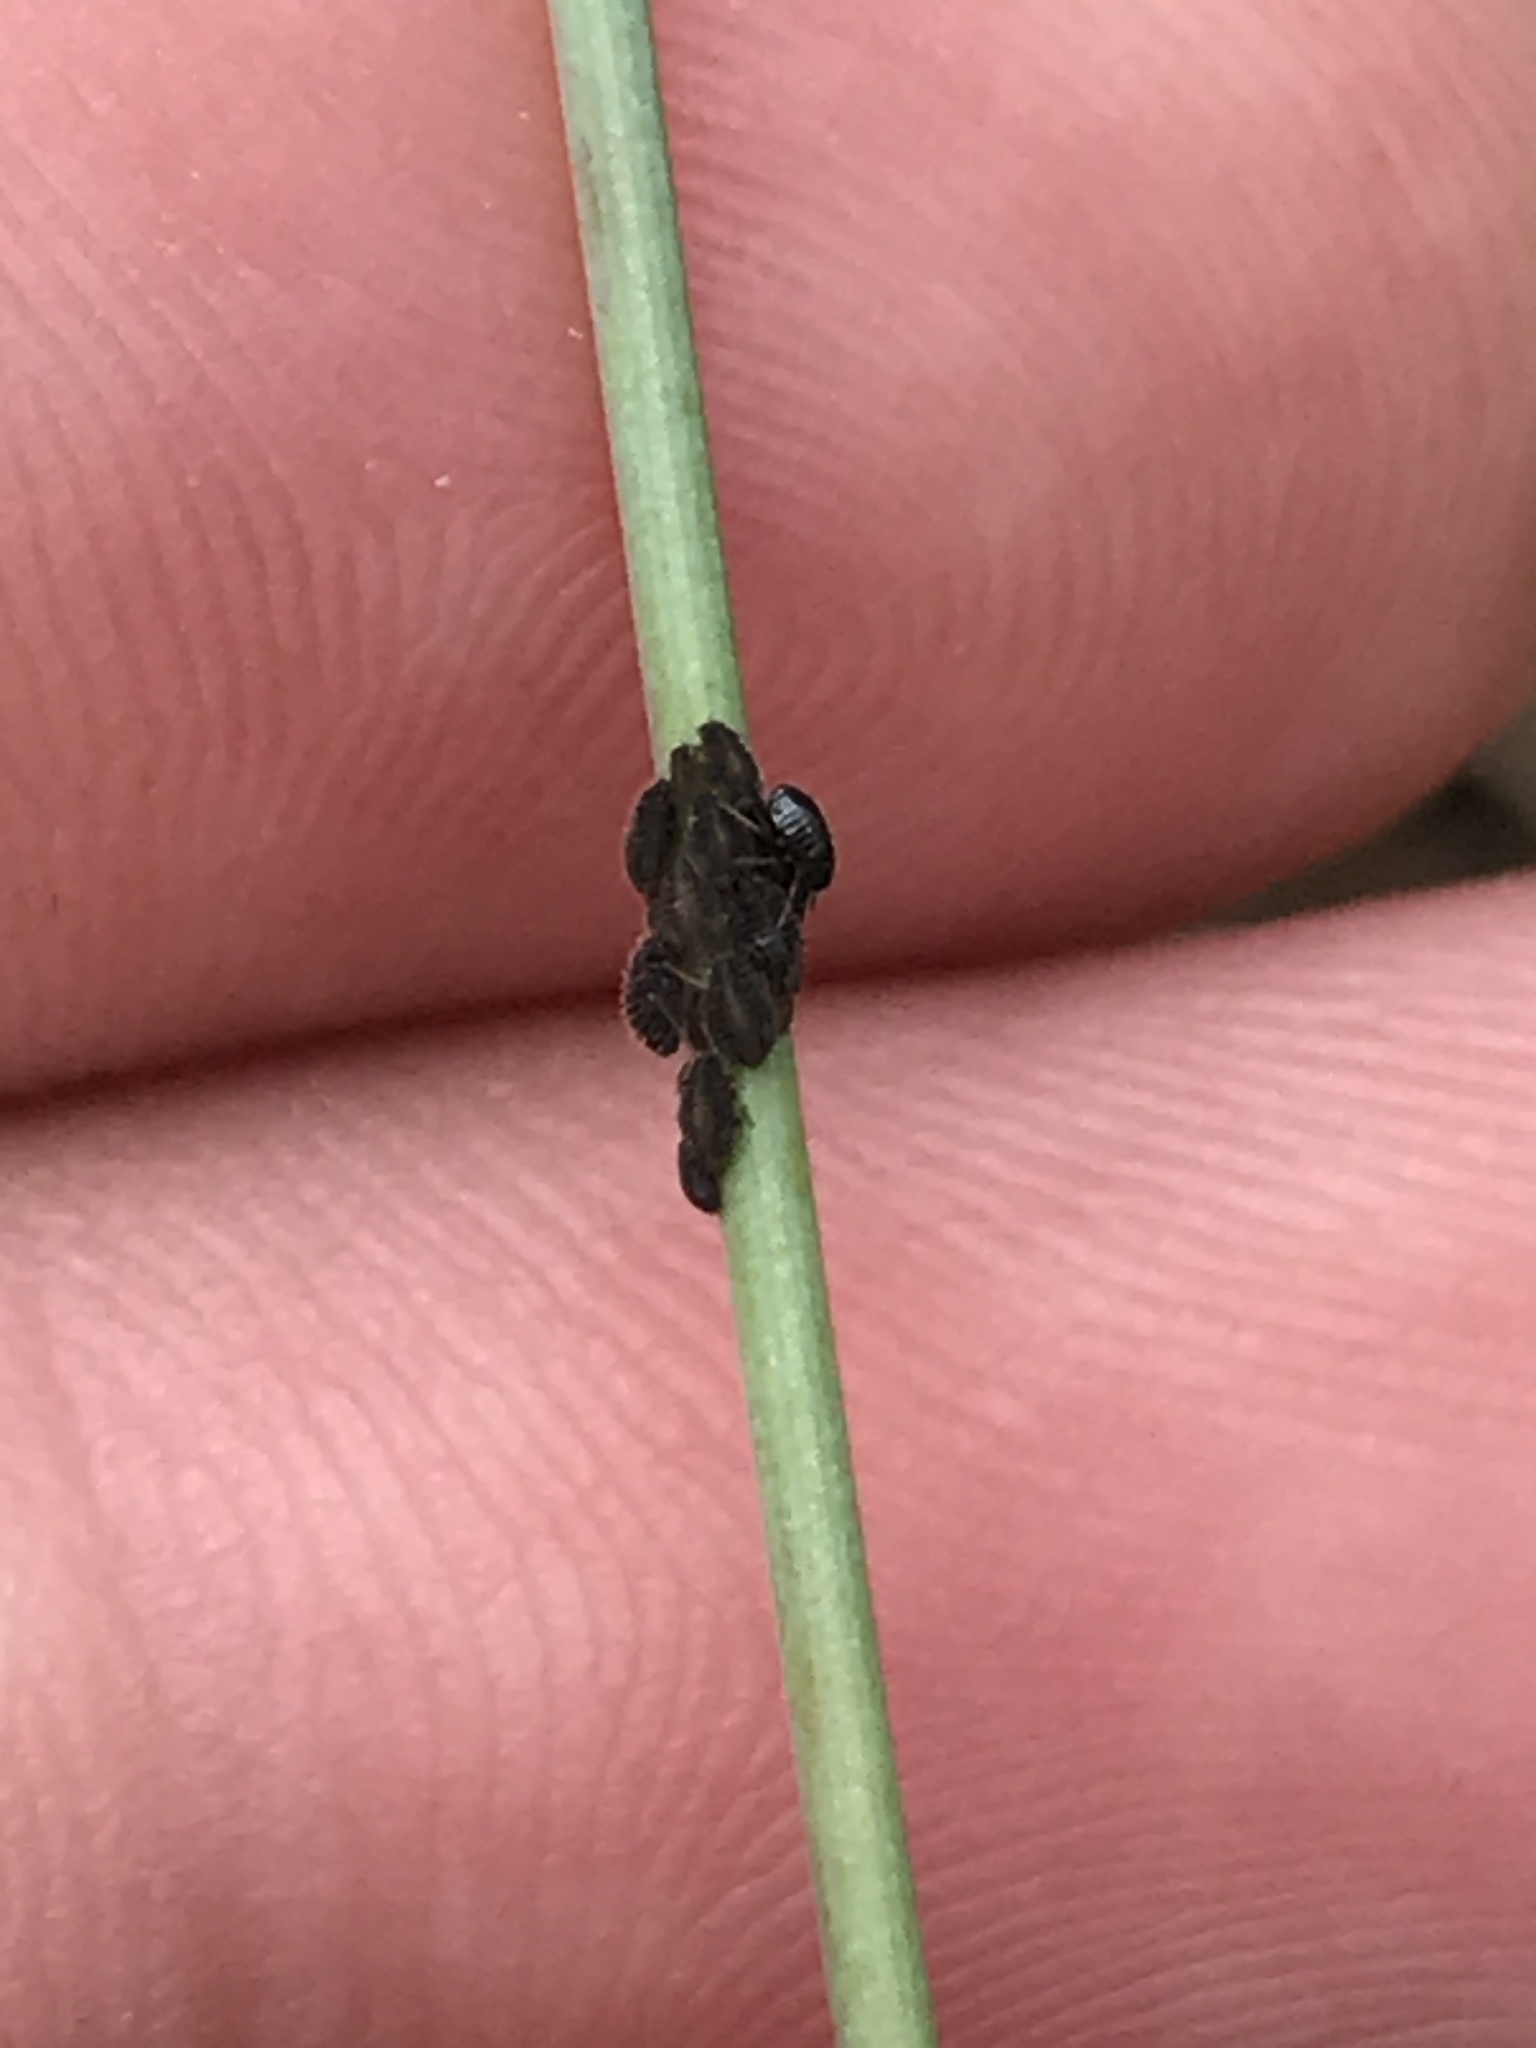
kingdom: Animalia
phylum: Arthropoda
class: Insecta
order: Hemiptera
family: Aphididae
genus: Sipha
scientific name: Sipha maydis
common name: Aphid
